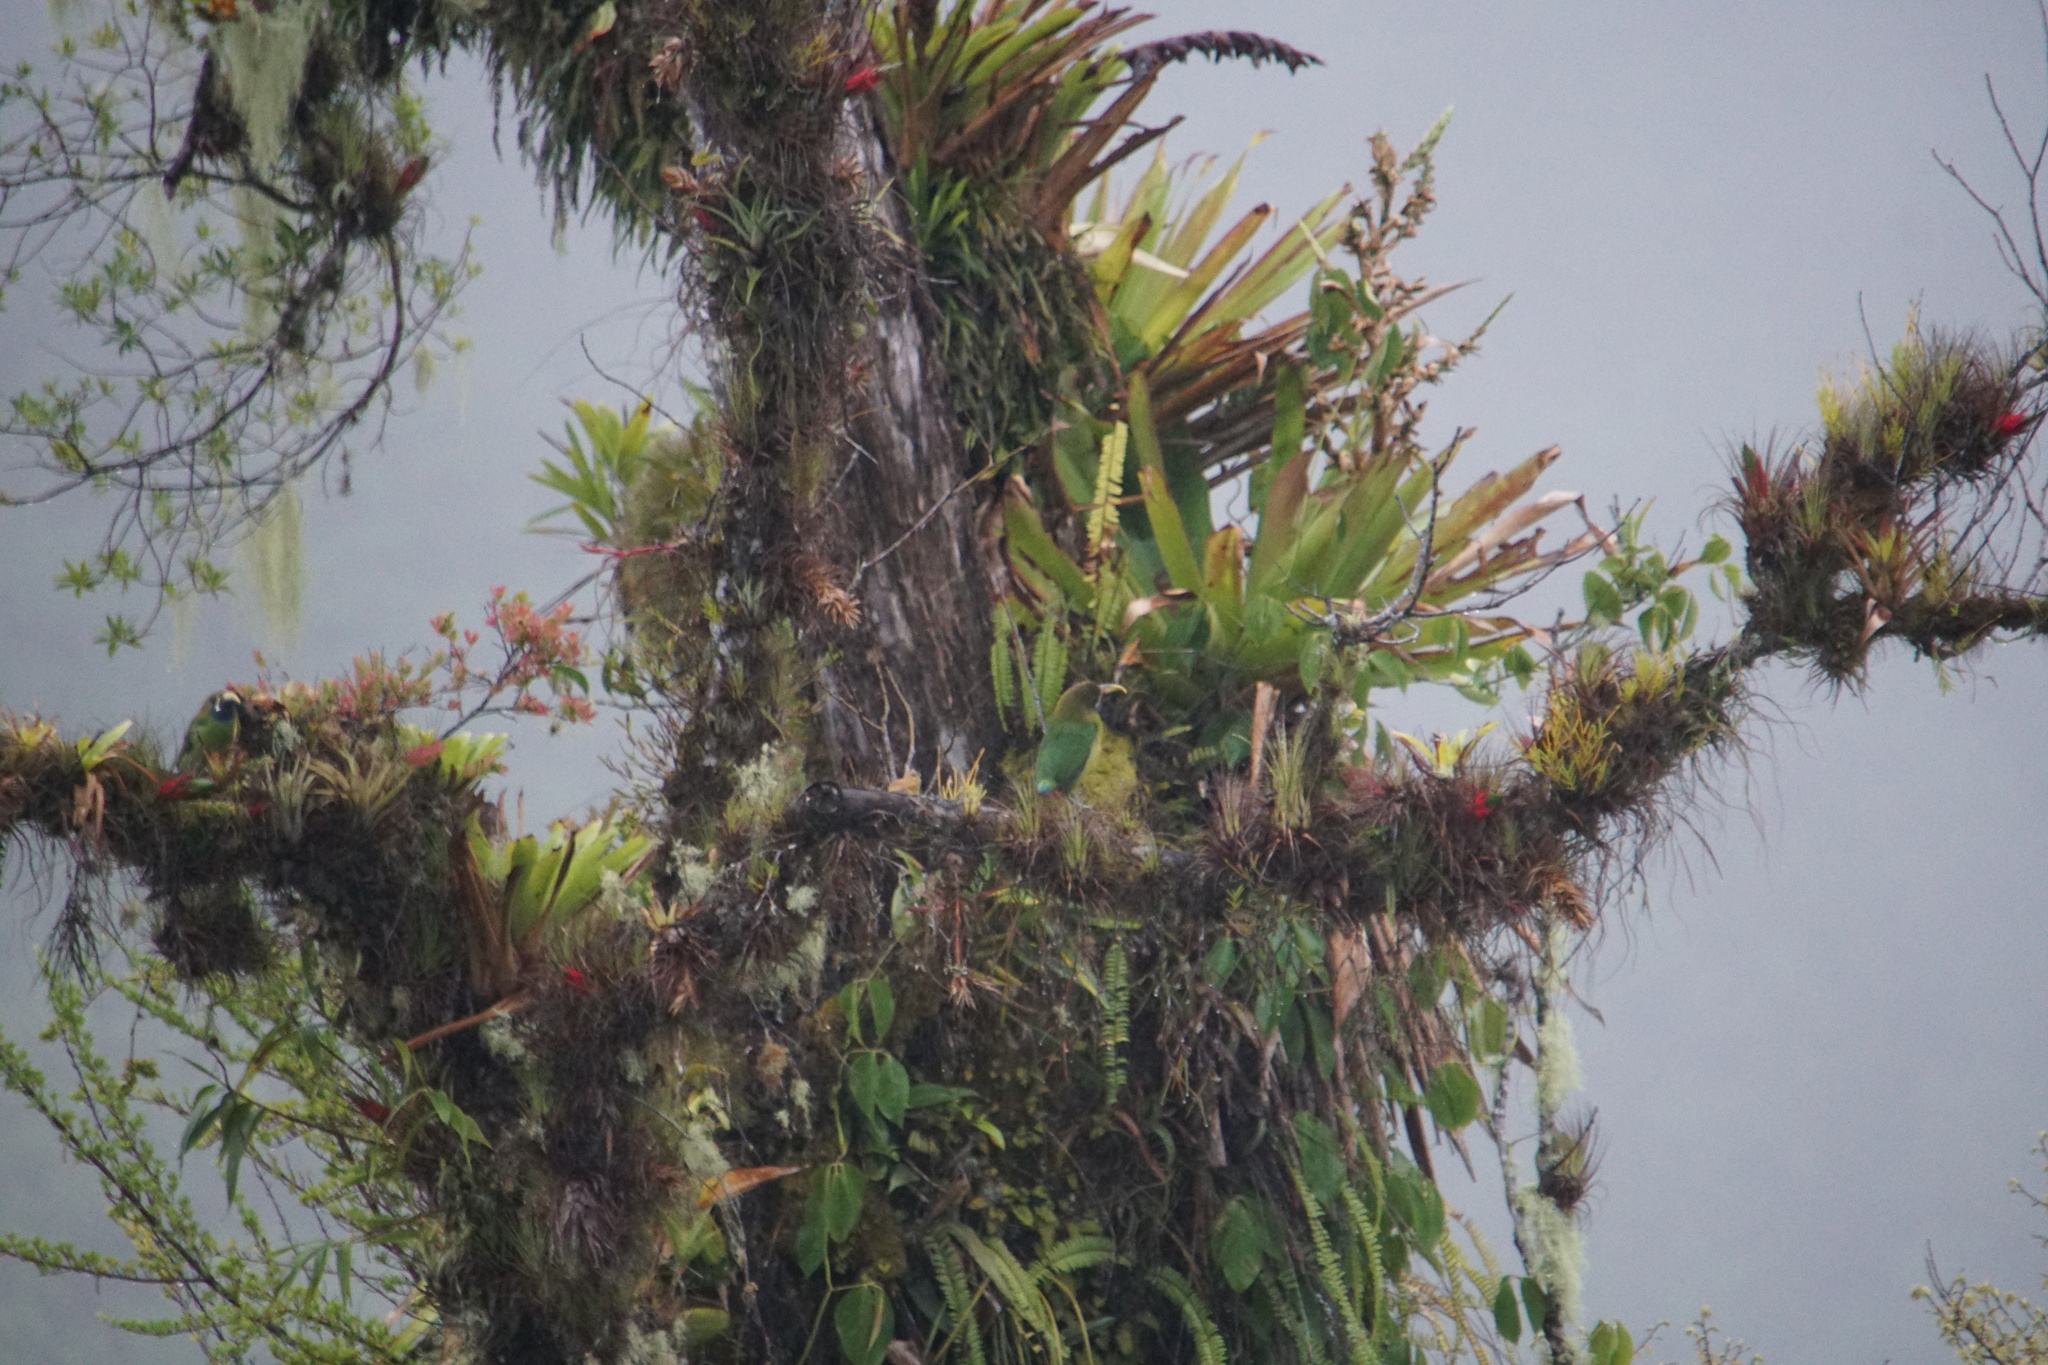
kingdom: Animalia
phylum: Chordata
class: Aves
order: Piciformes
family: Ramphastidae
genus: Aulacorhynchus
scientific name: Aulacorhynchus prasinus
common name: Emerald toucanet
